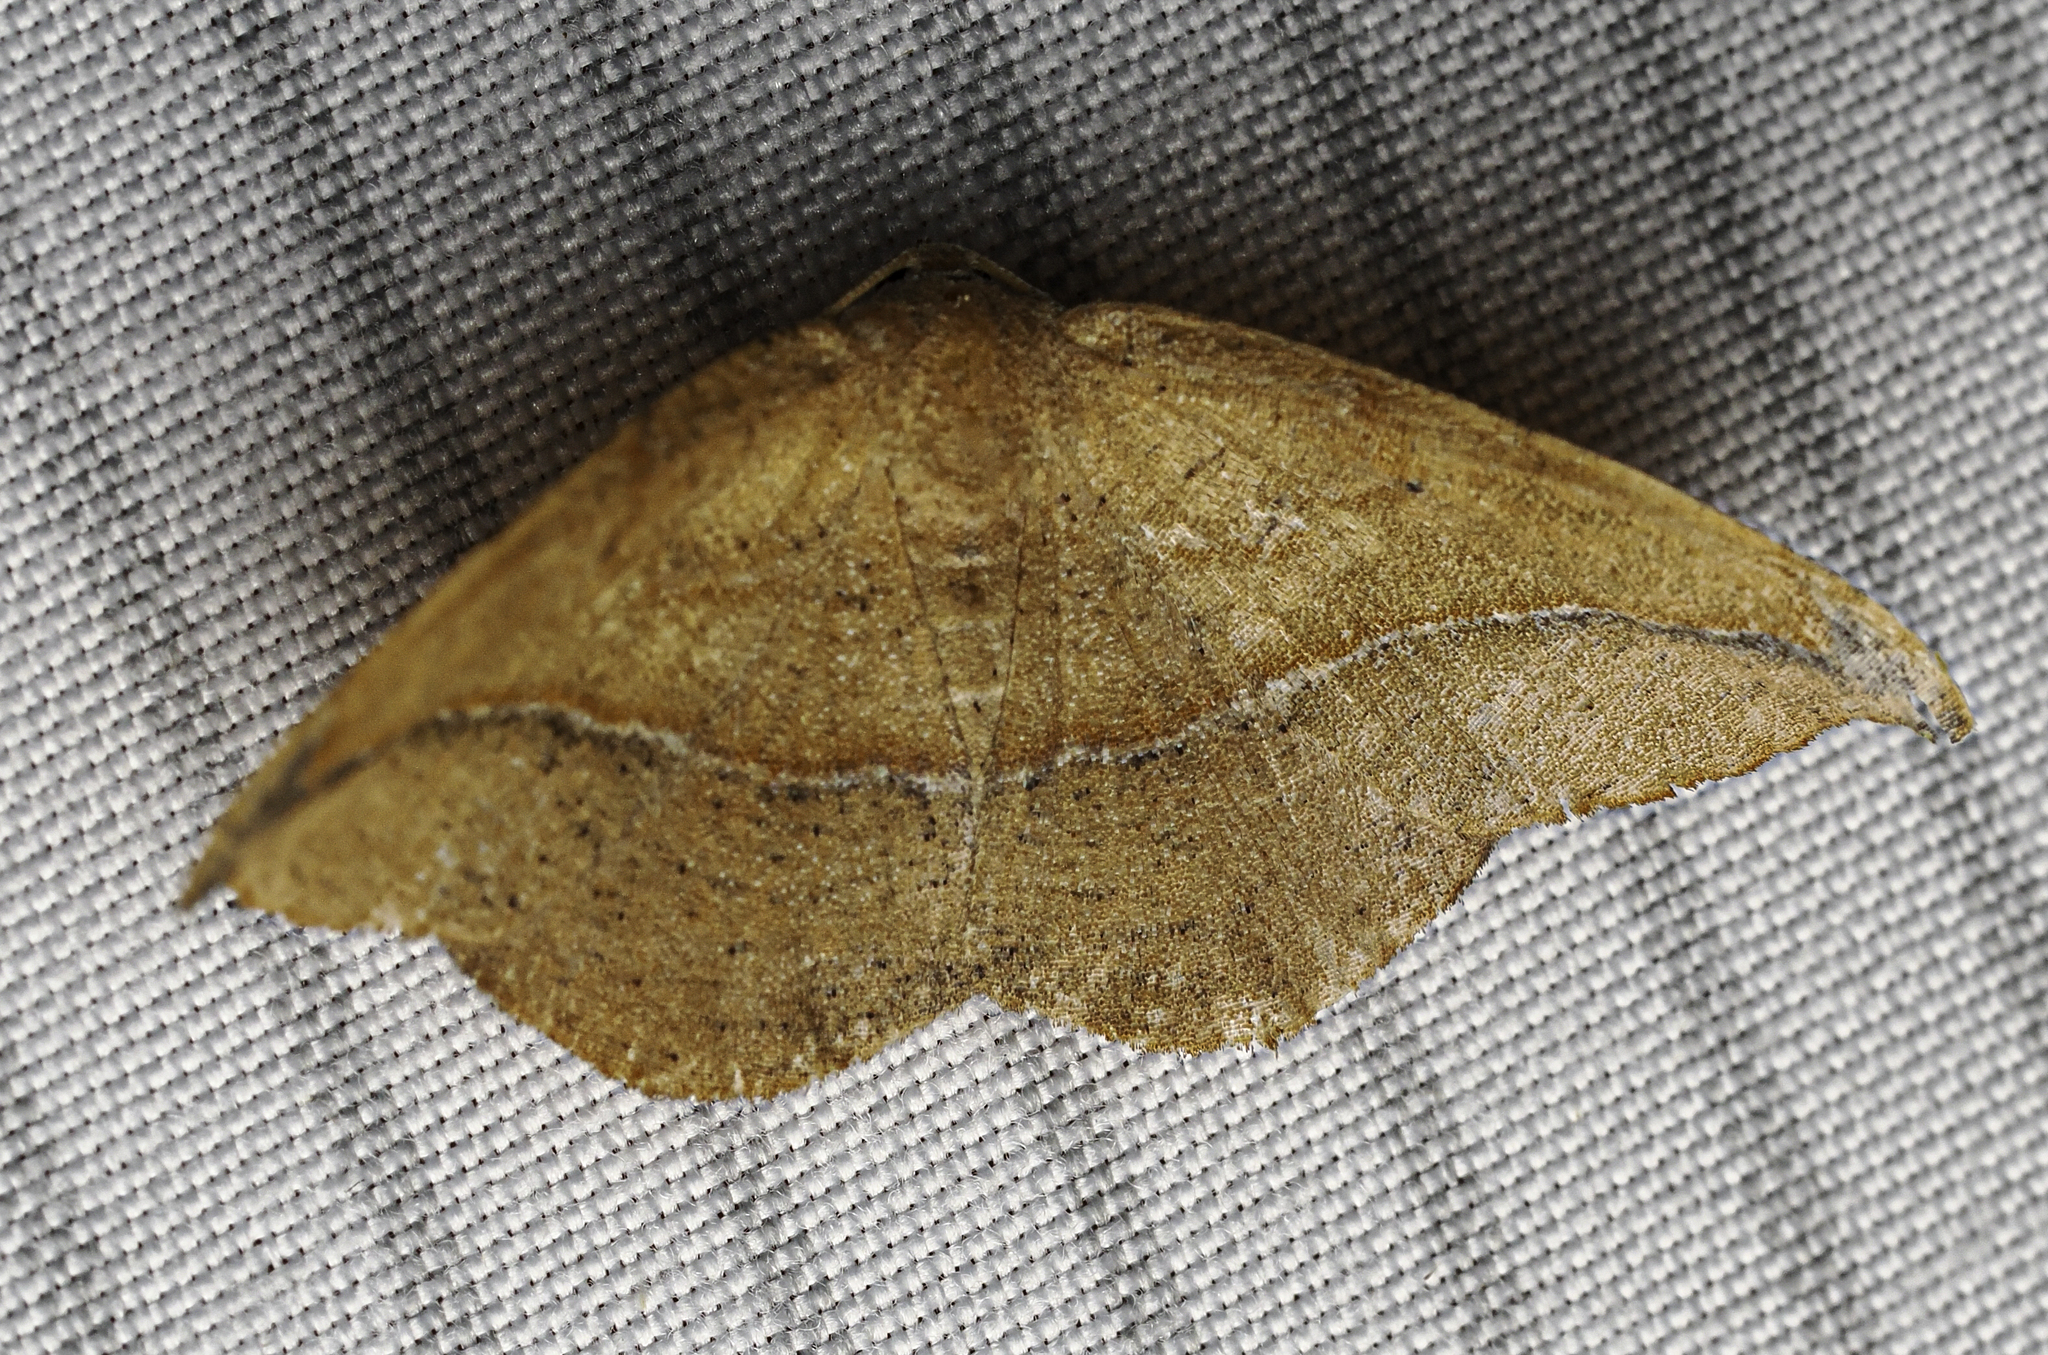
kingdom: Animalia
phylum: Arthropoda
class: Insecta
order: Lepidoptera
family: Geometridae
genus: Patalene
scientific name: Patalene olyzonaria
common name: Juniper geometer moth
